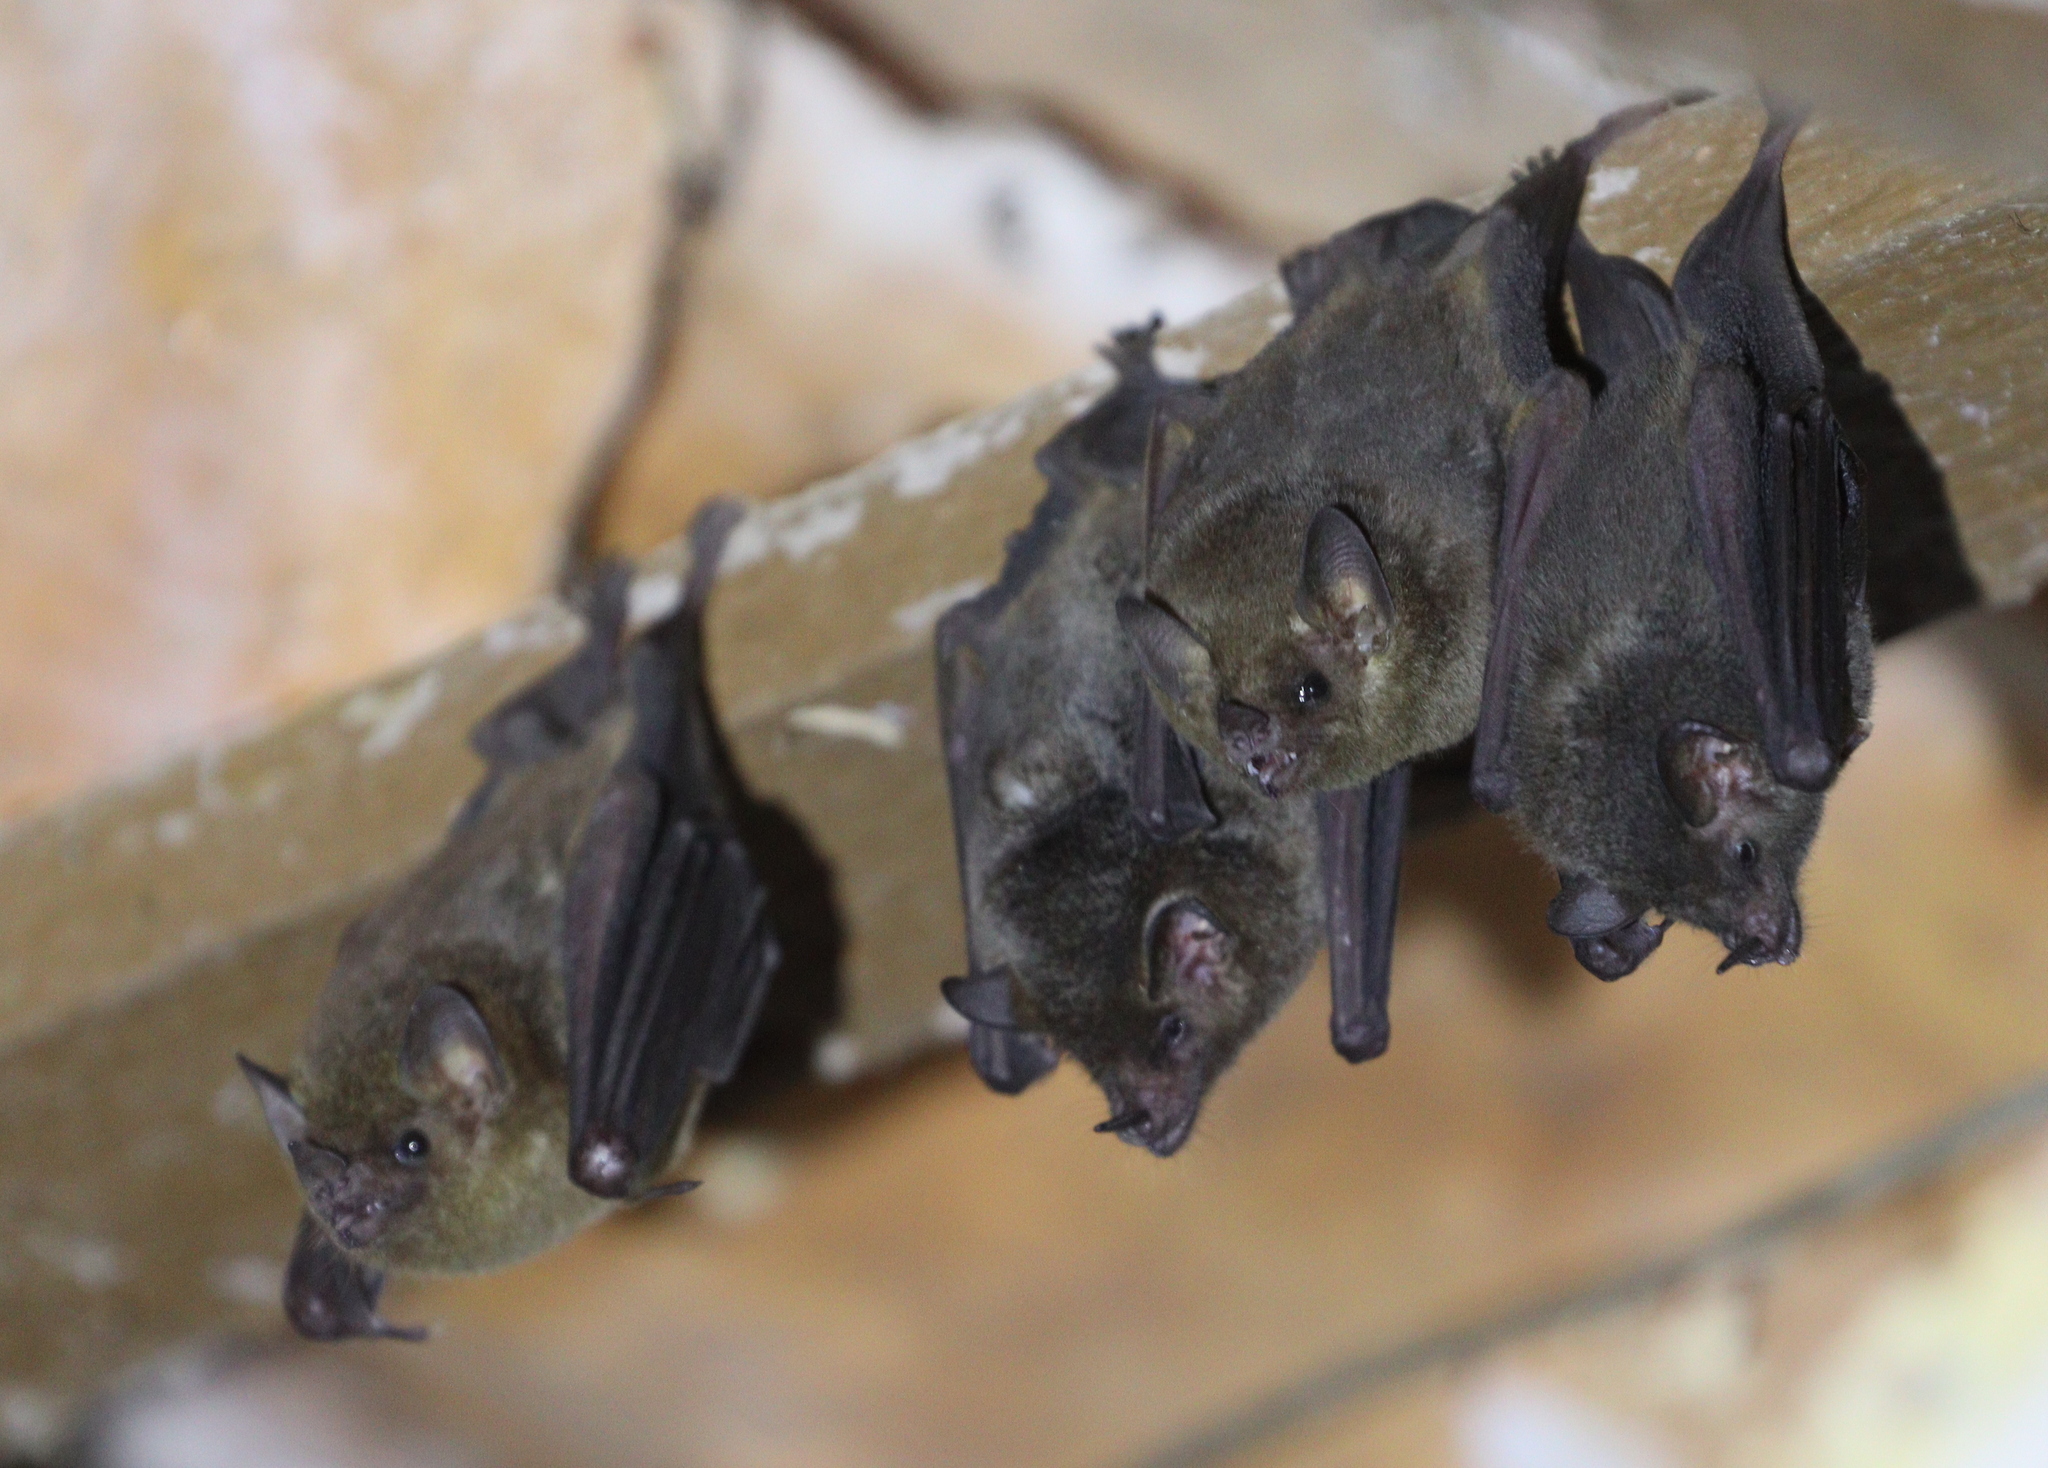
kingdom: Animalia
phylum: Chordata
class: Mammalia
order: Chiroptera
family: Phyllostomidae
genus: Glossophaga
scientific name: Glossophaga soricina
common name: Pallas's long-tongued bat
